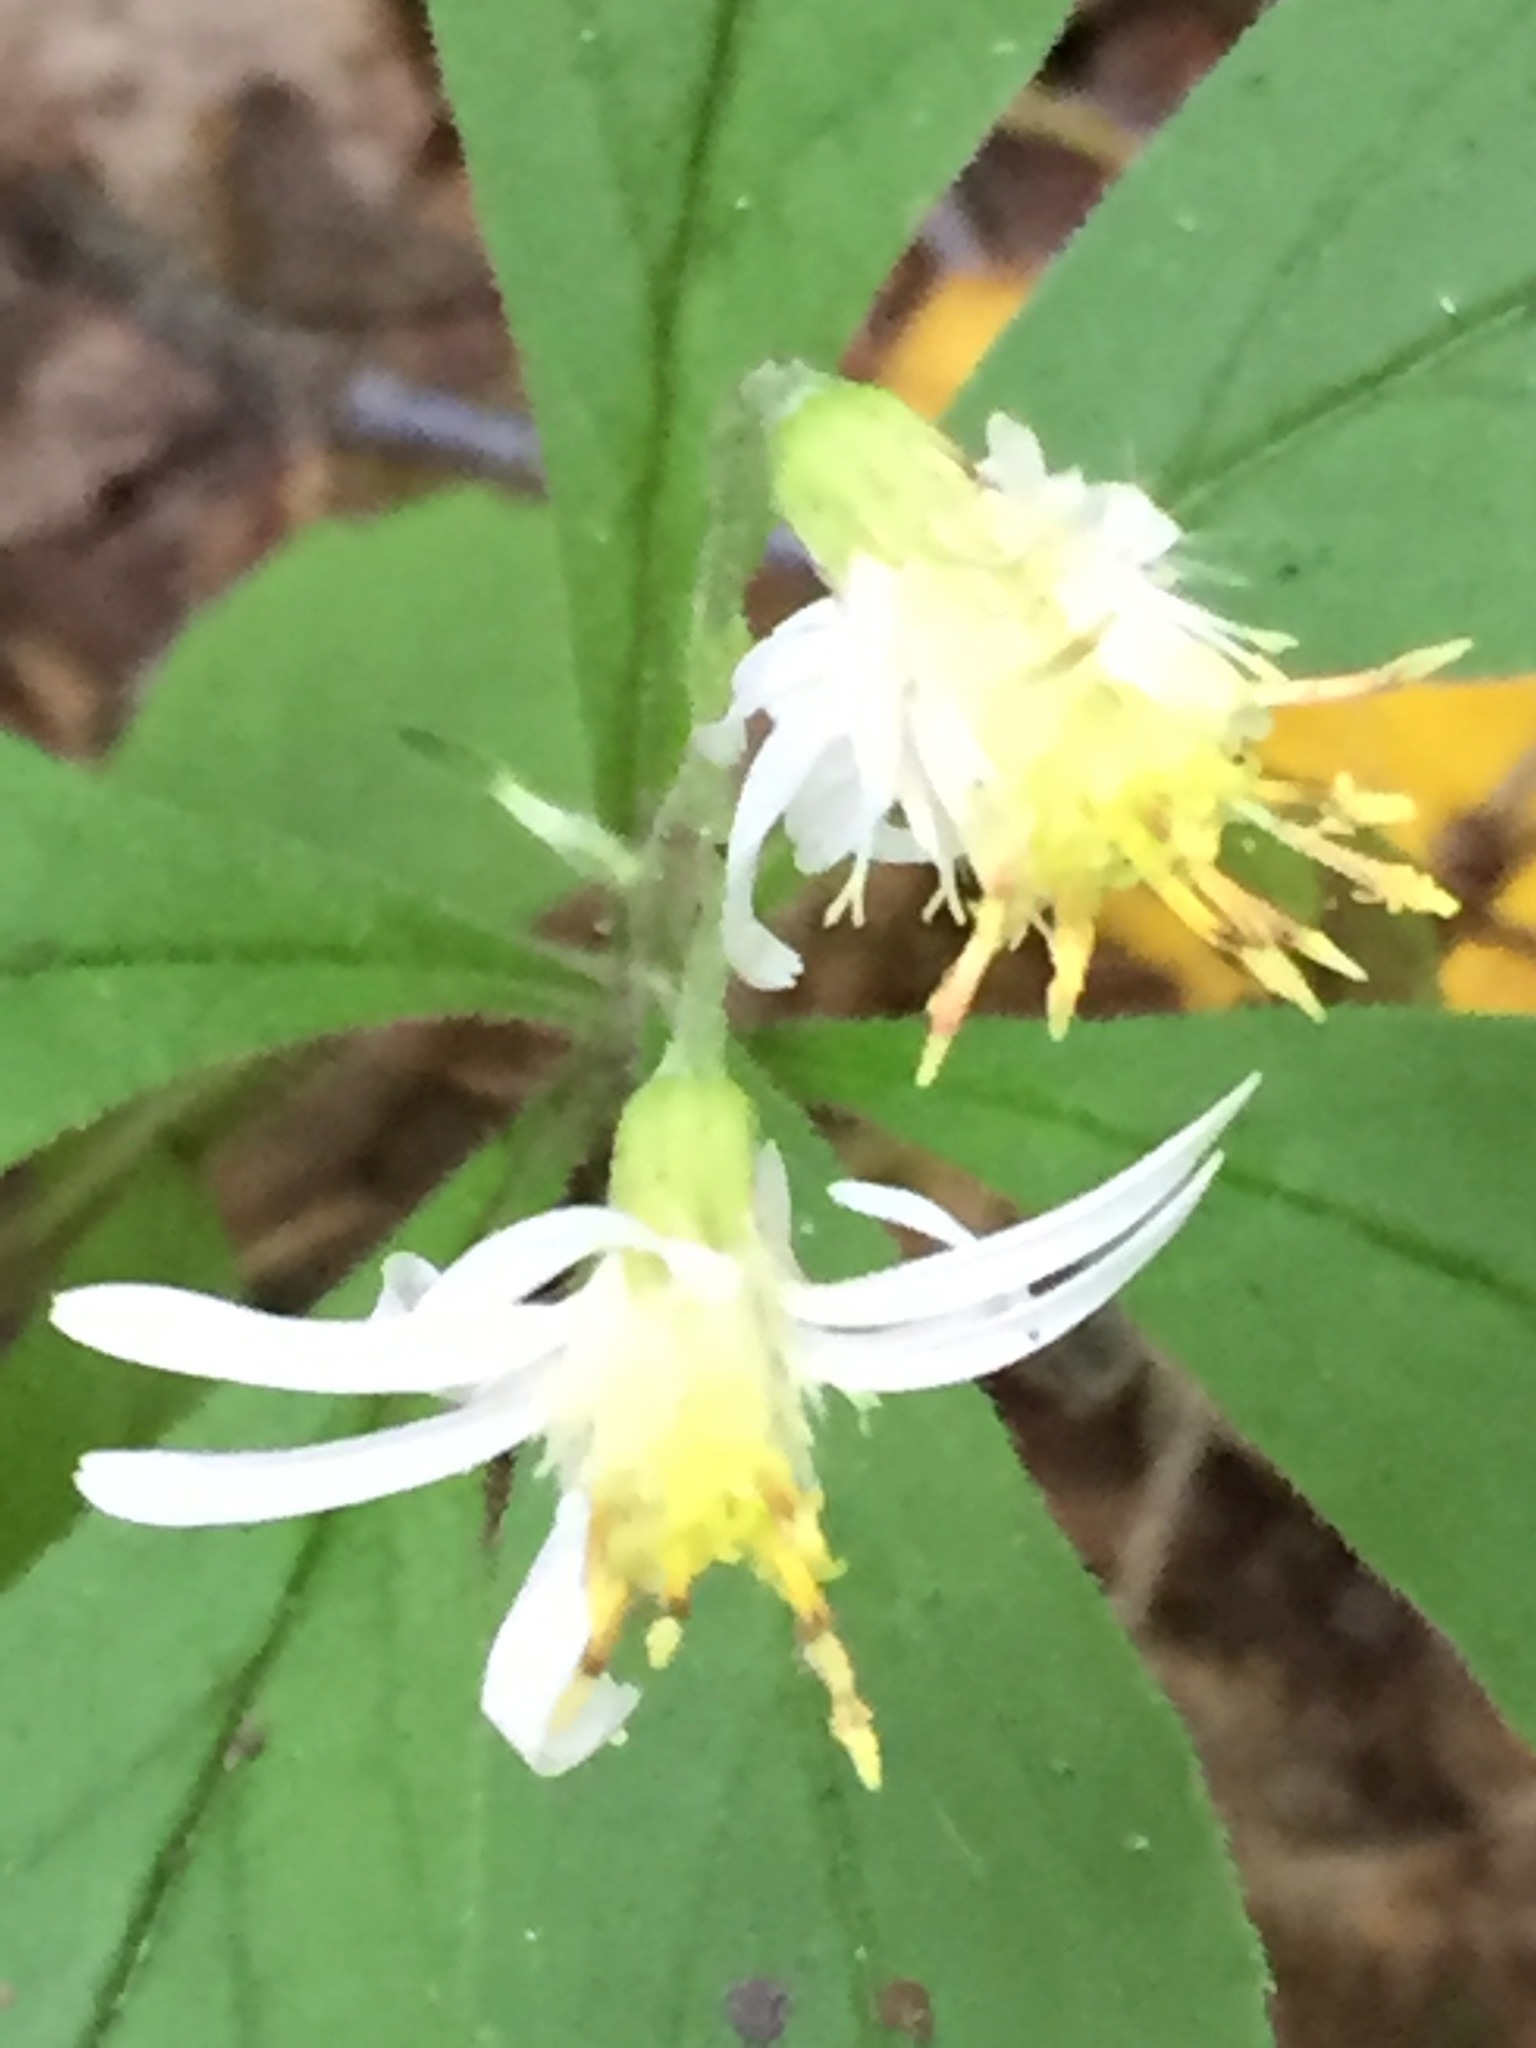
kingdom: Plantae
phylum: Tracheophyta
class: Magnoliopsida
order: Asterales
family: Asteraceae
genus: Oclemena
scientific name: Oclemena acuminata
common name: Mountain aster
